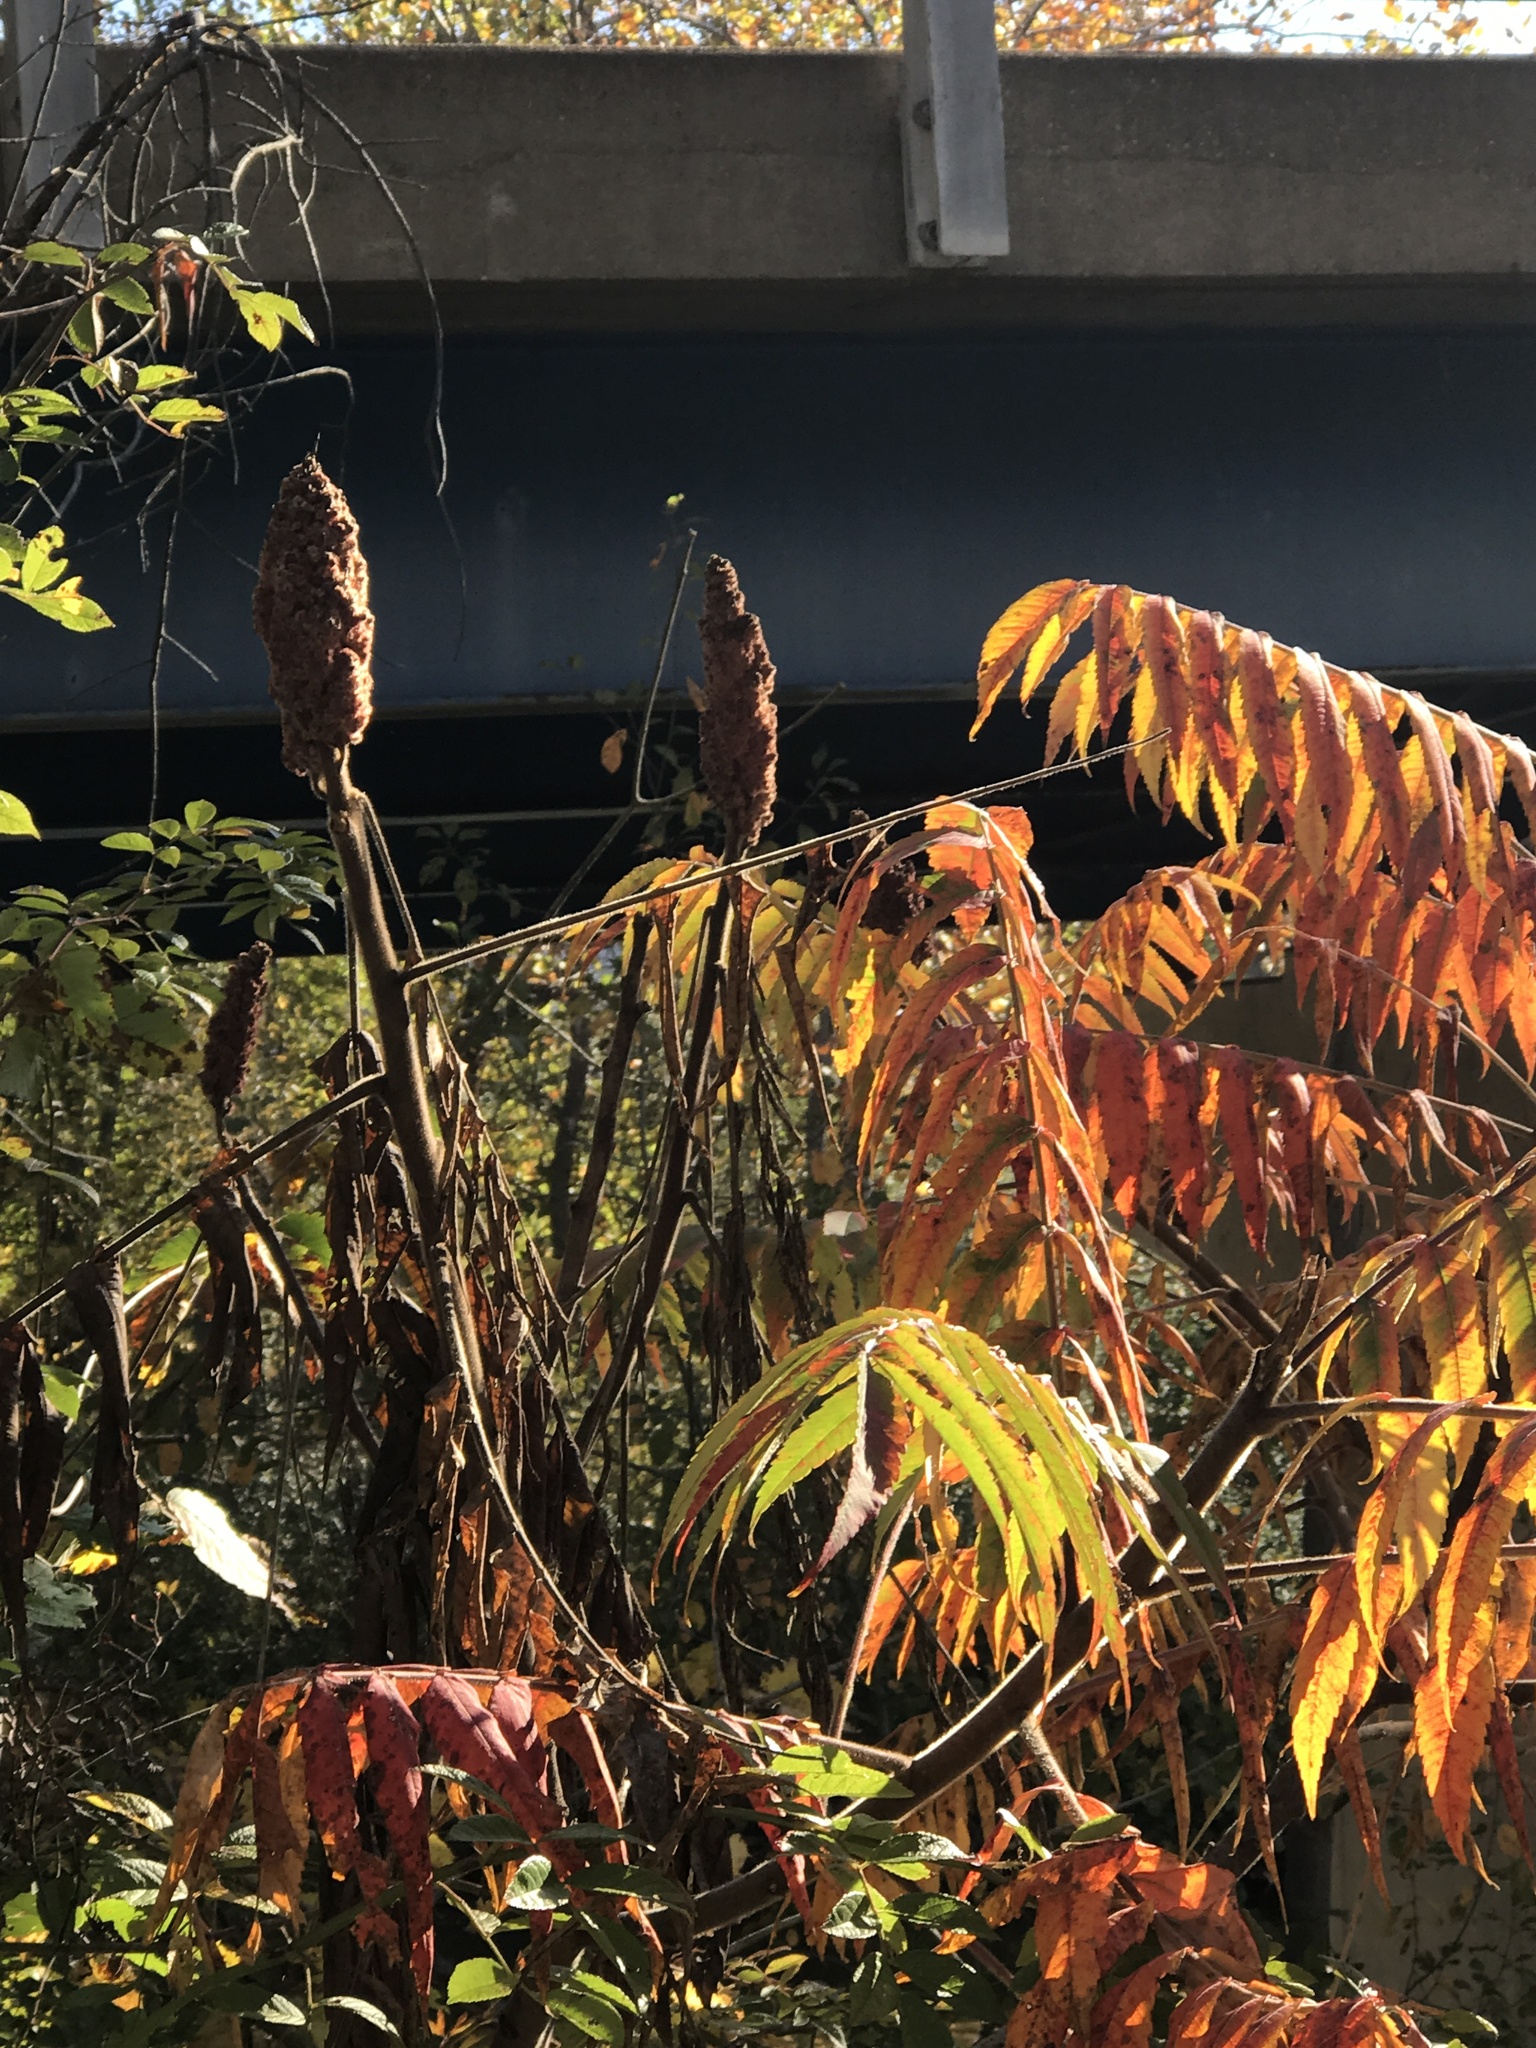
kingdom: Plantae
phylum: Tracheophyta
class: Magnoliopsida
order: Sapindales
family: Anacardiaceae
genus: Rhus
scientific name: Rhus typhina
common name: Staghorn sumac
